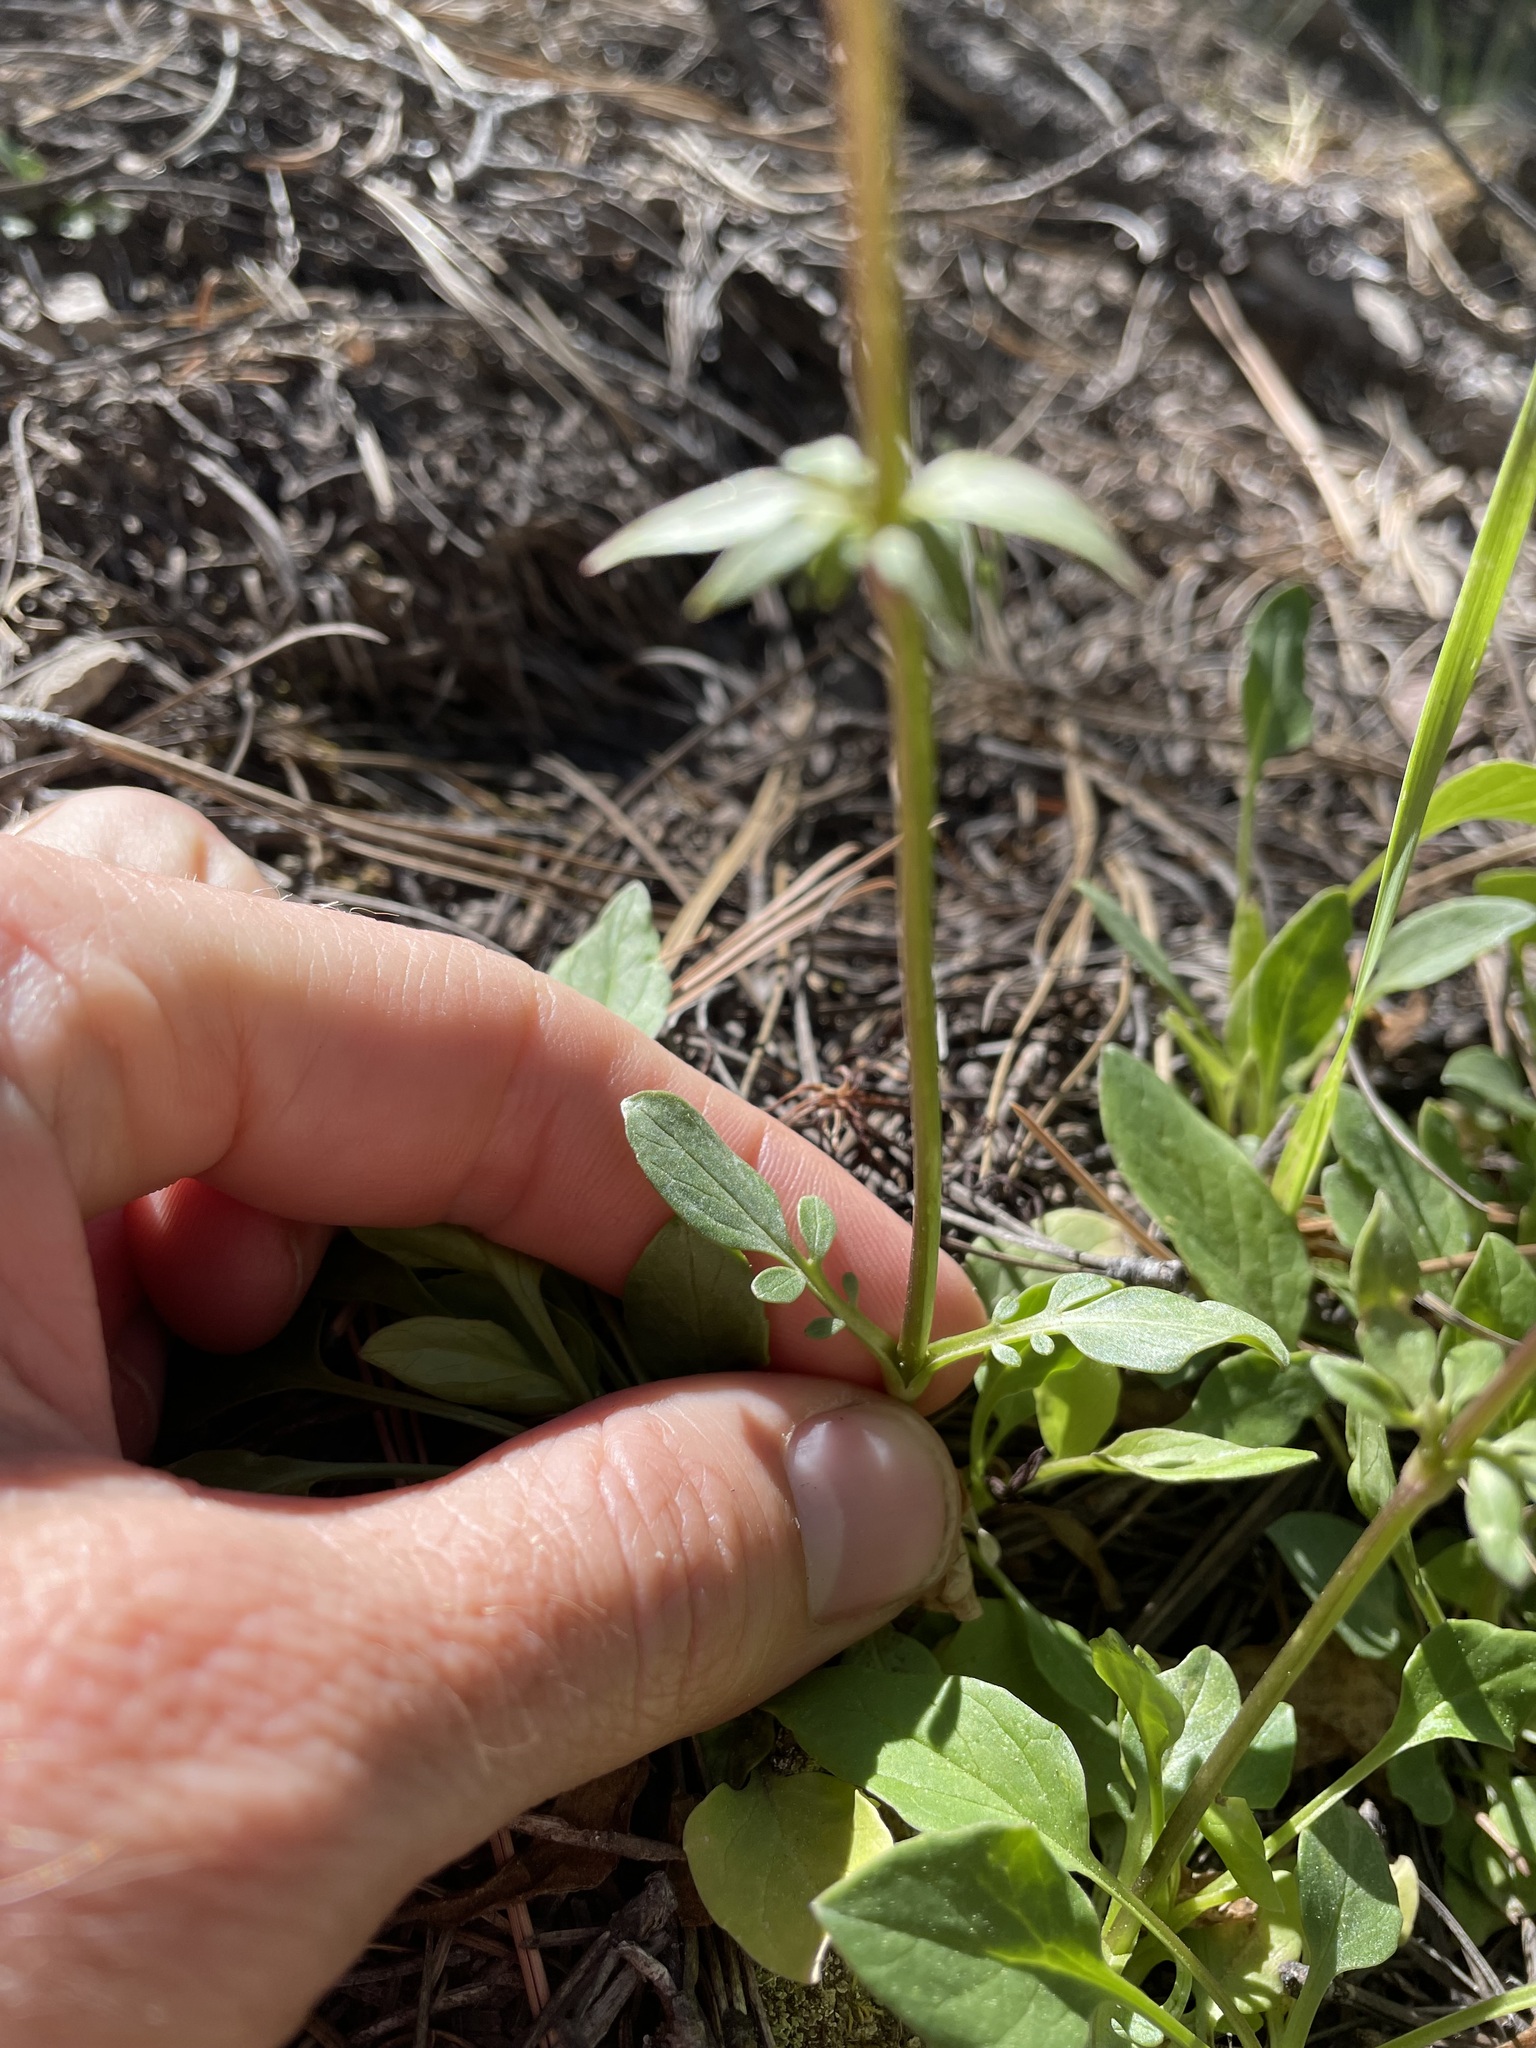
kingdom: Plantae
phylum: Tracheophyta
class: Magnoliopsida
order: Dipsacales
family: Caprifoliaceae
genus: Valeriana
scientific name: Valeriana arizonica
